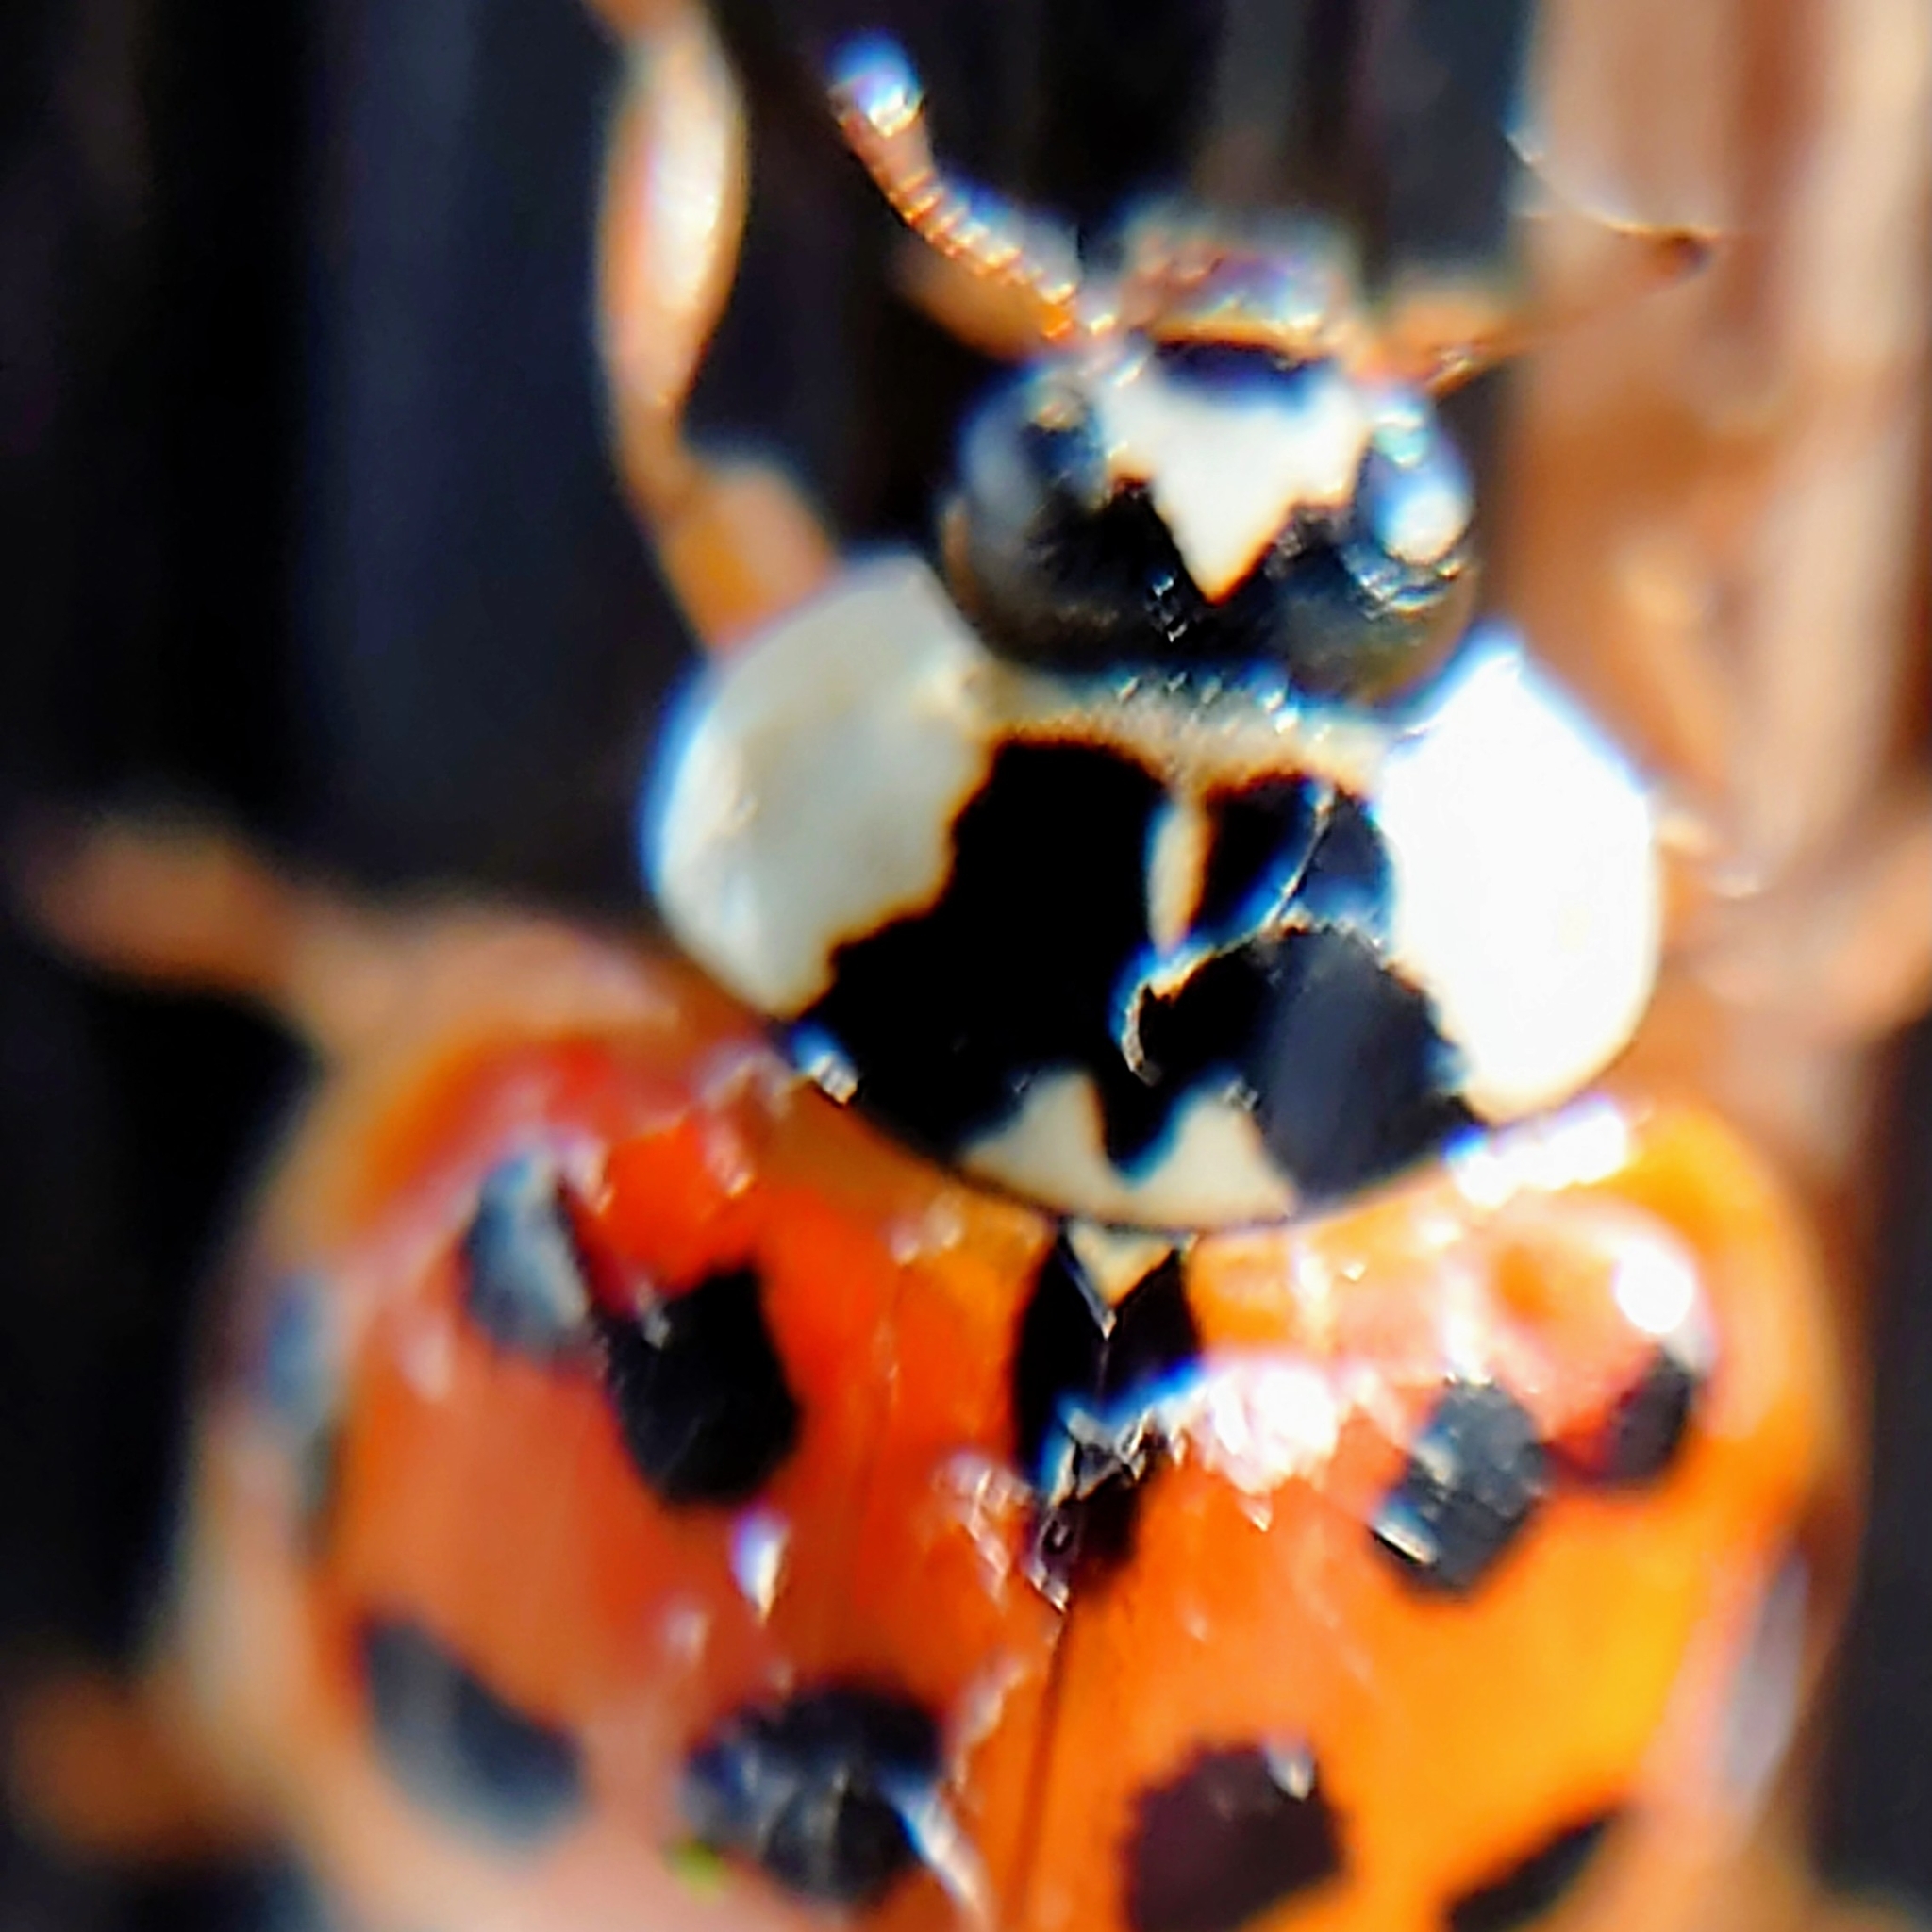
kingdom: Animalia
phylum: Arthropoda
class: Insecta
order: Coleoptera
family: Coccinellidae
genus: Harmonia
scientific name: Harmonia axyridis
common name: Harlequin ladybird
